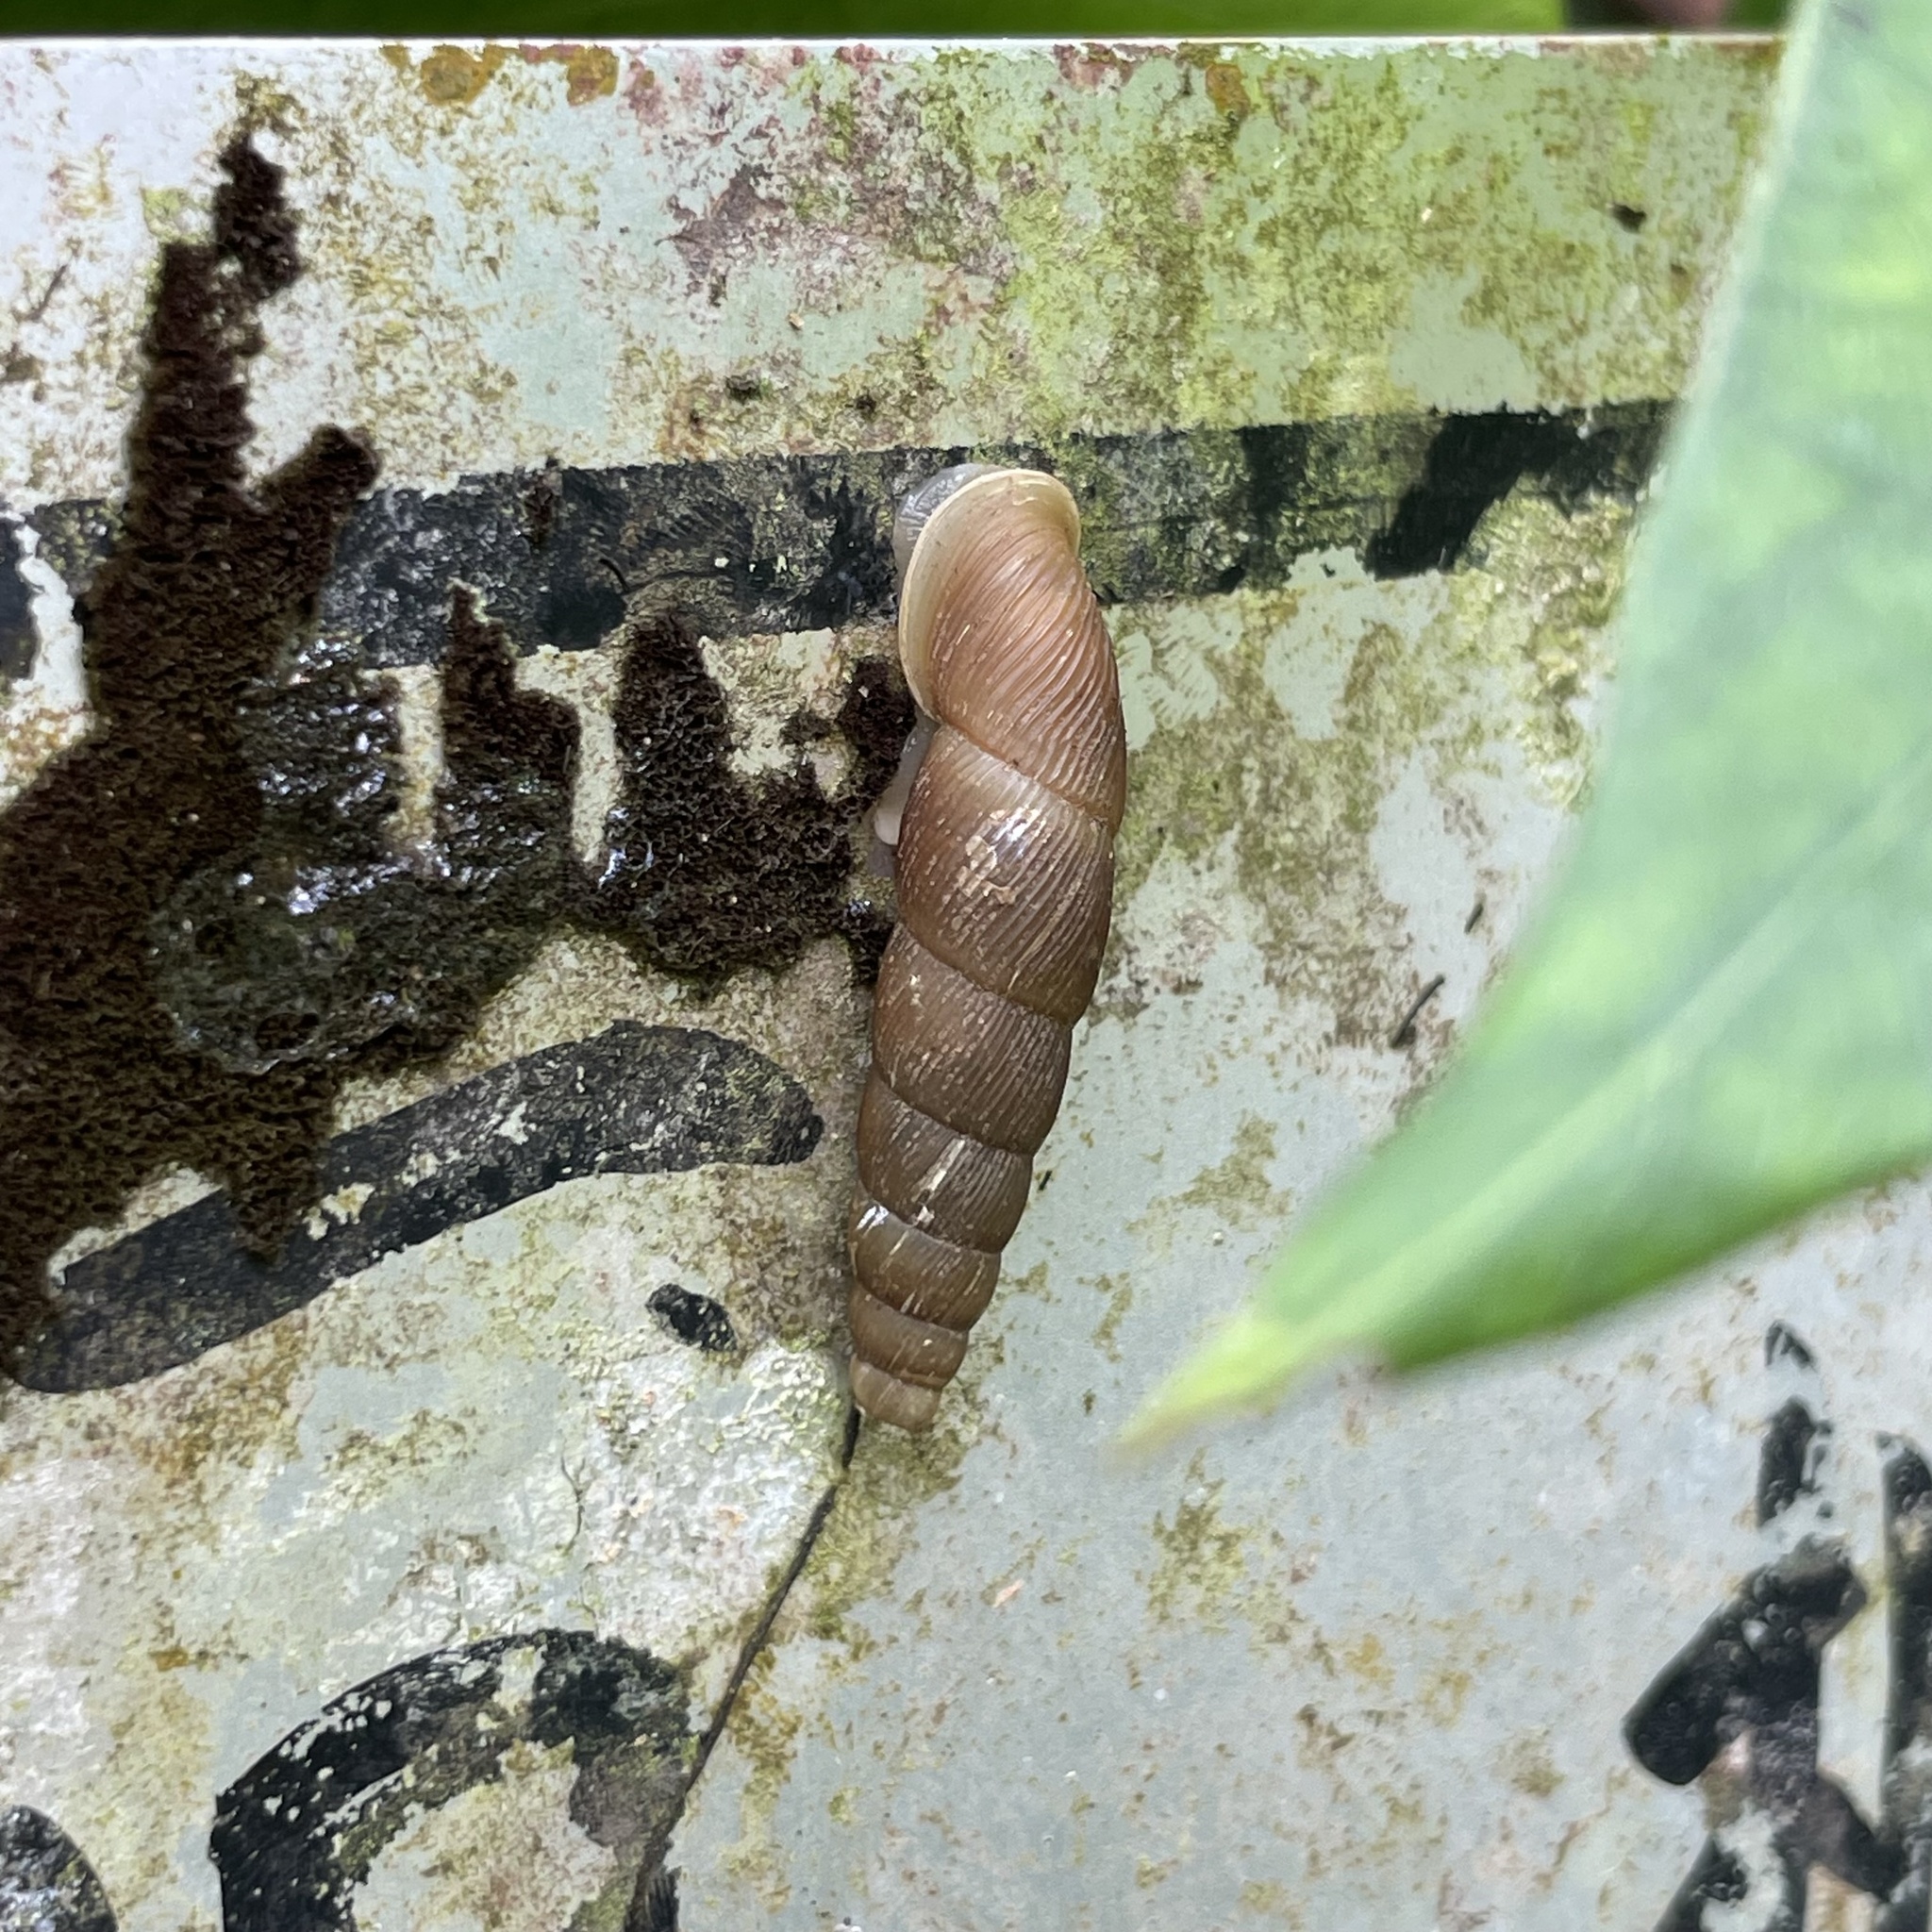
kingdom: Animalia
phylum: Mollusca
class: Gastropoda
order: Stylommatophora
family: Clausiliidae
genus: Stereophaedusa
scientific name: Stereophaedusa valida
